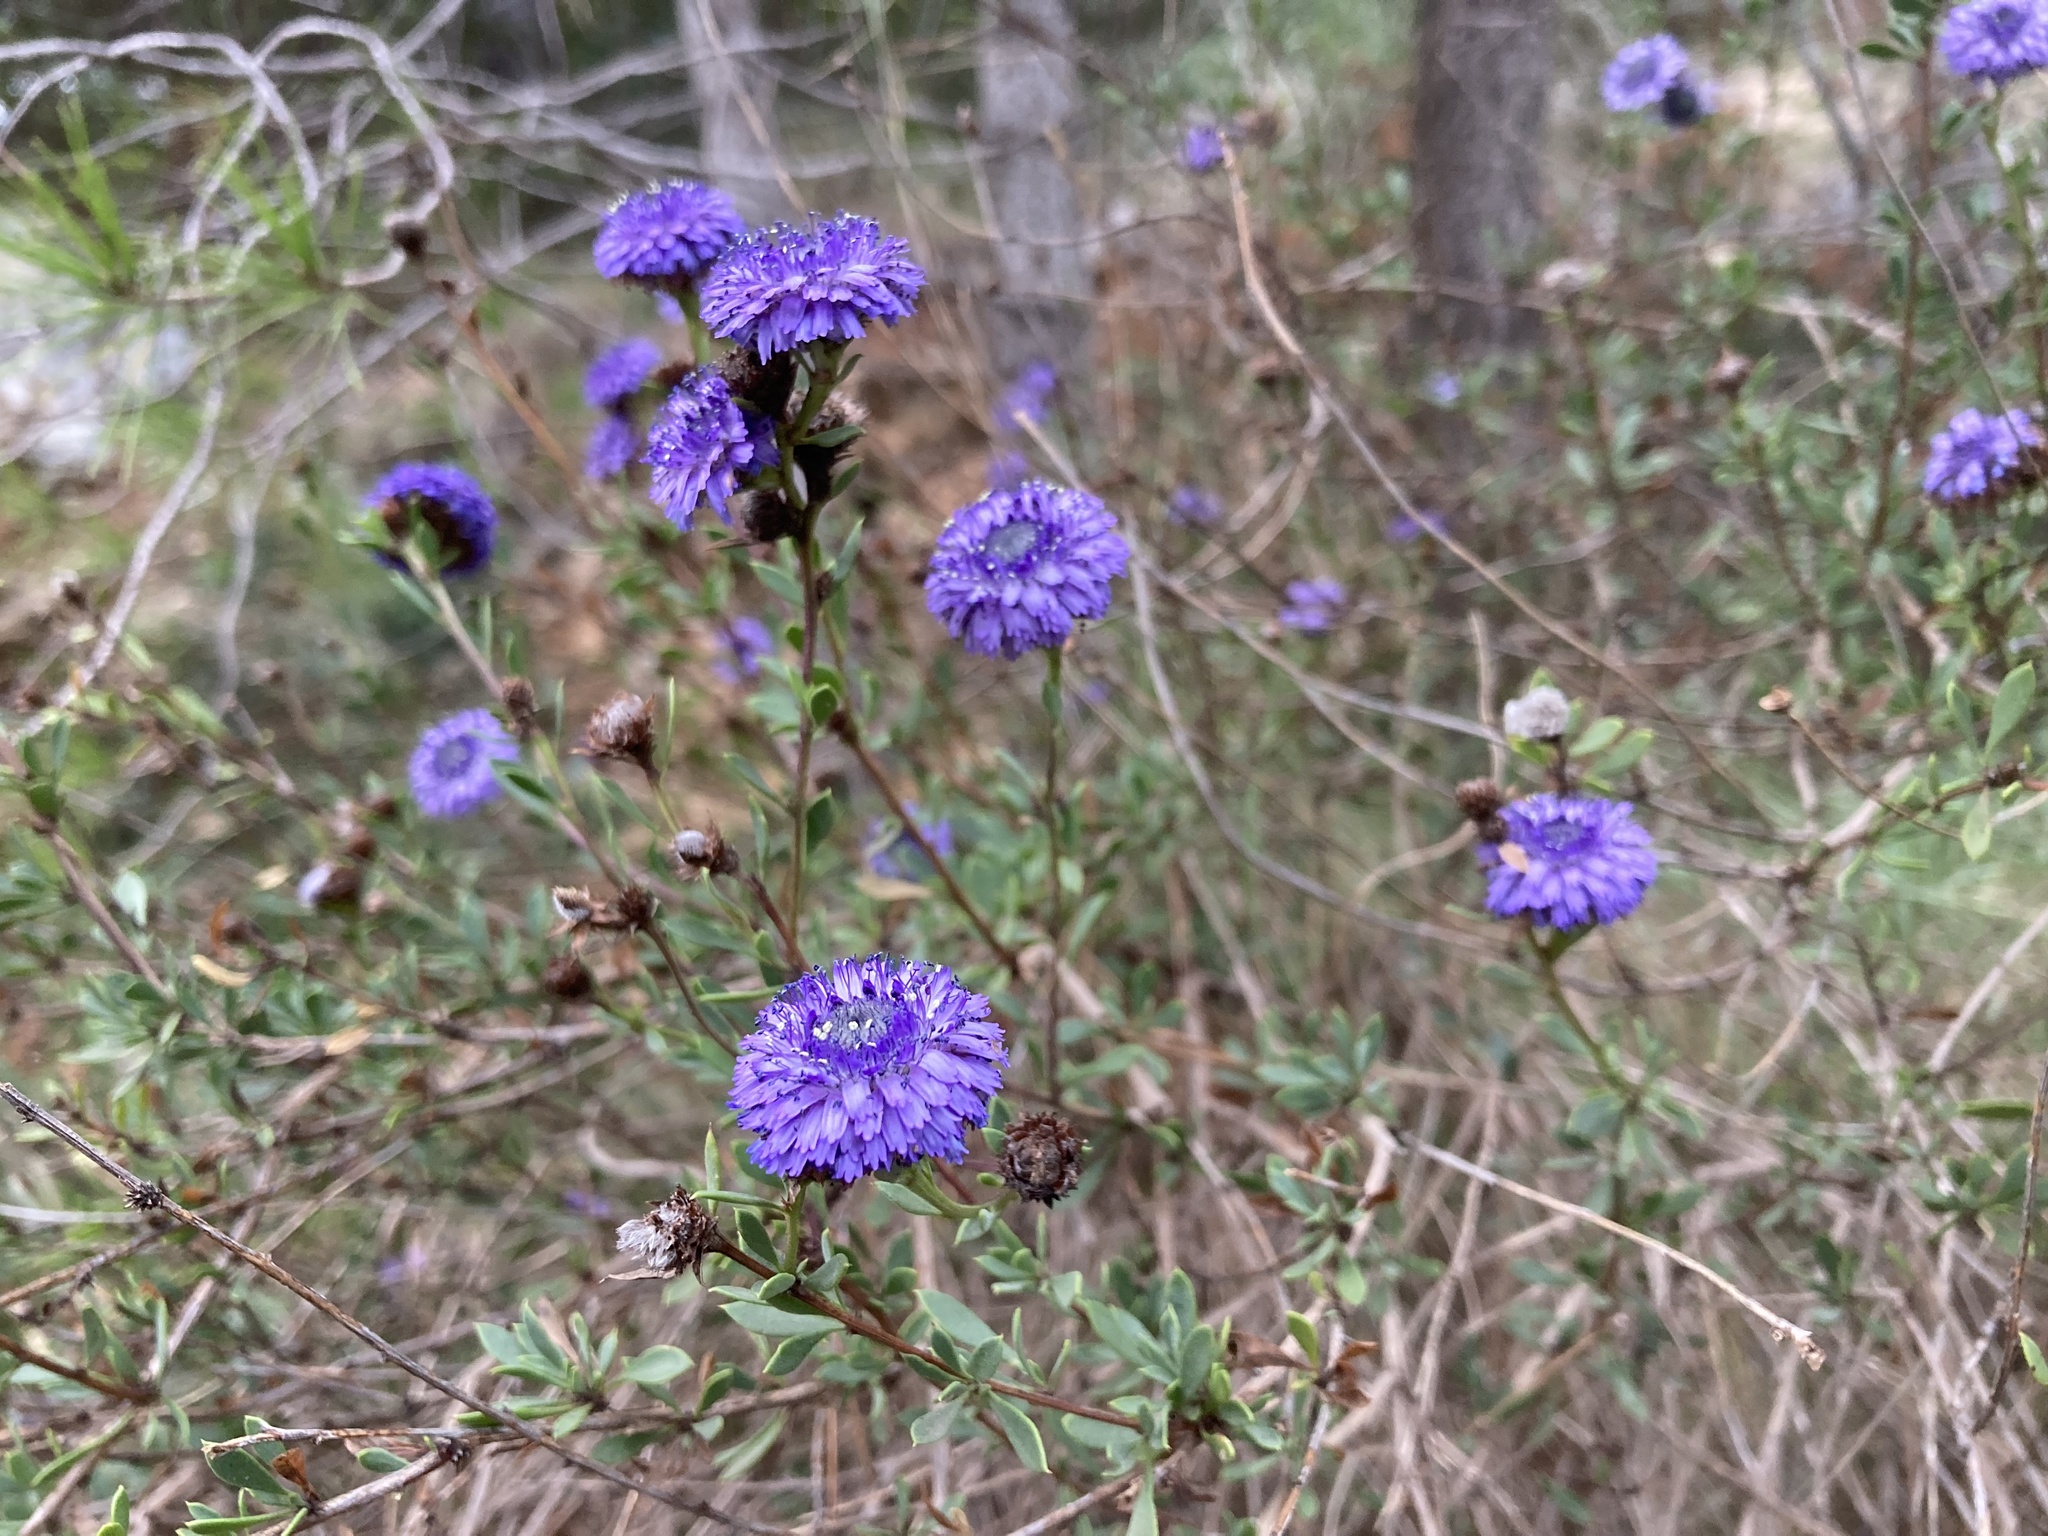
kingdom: Plantae
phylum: Tracheophyta
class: Magnoliopsida
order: Lamiales
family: Plantaginaceae
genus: Globularia
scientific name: Globularia alypum
